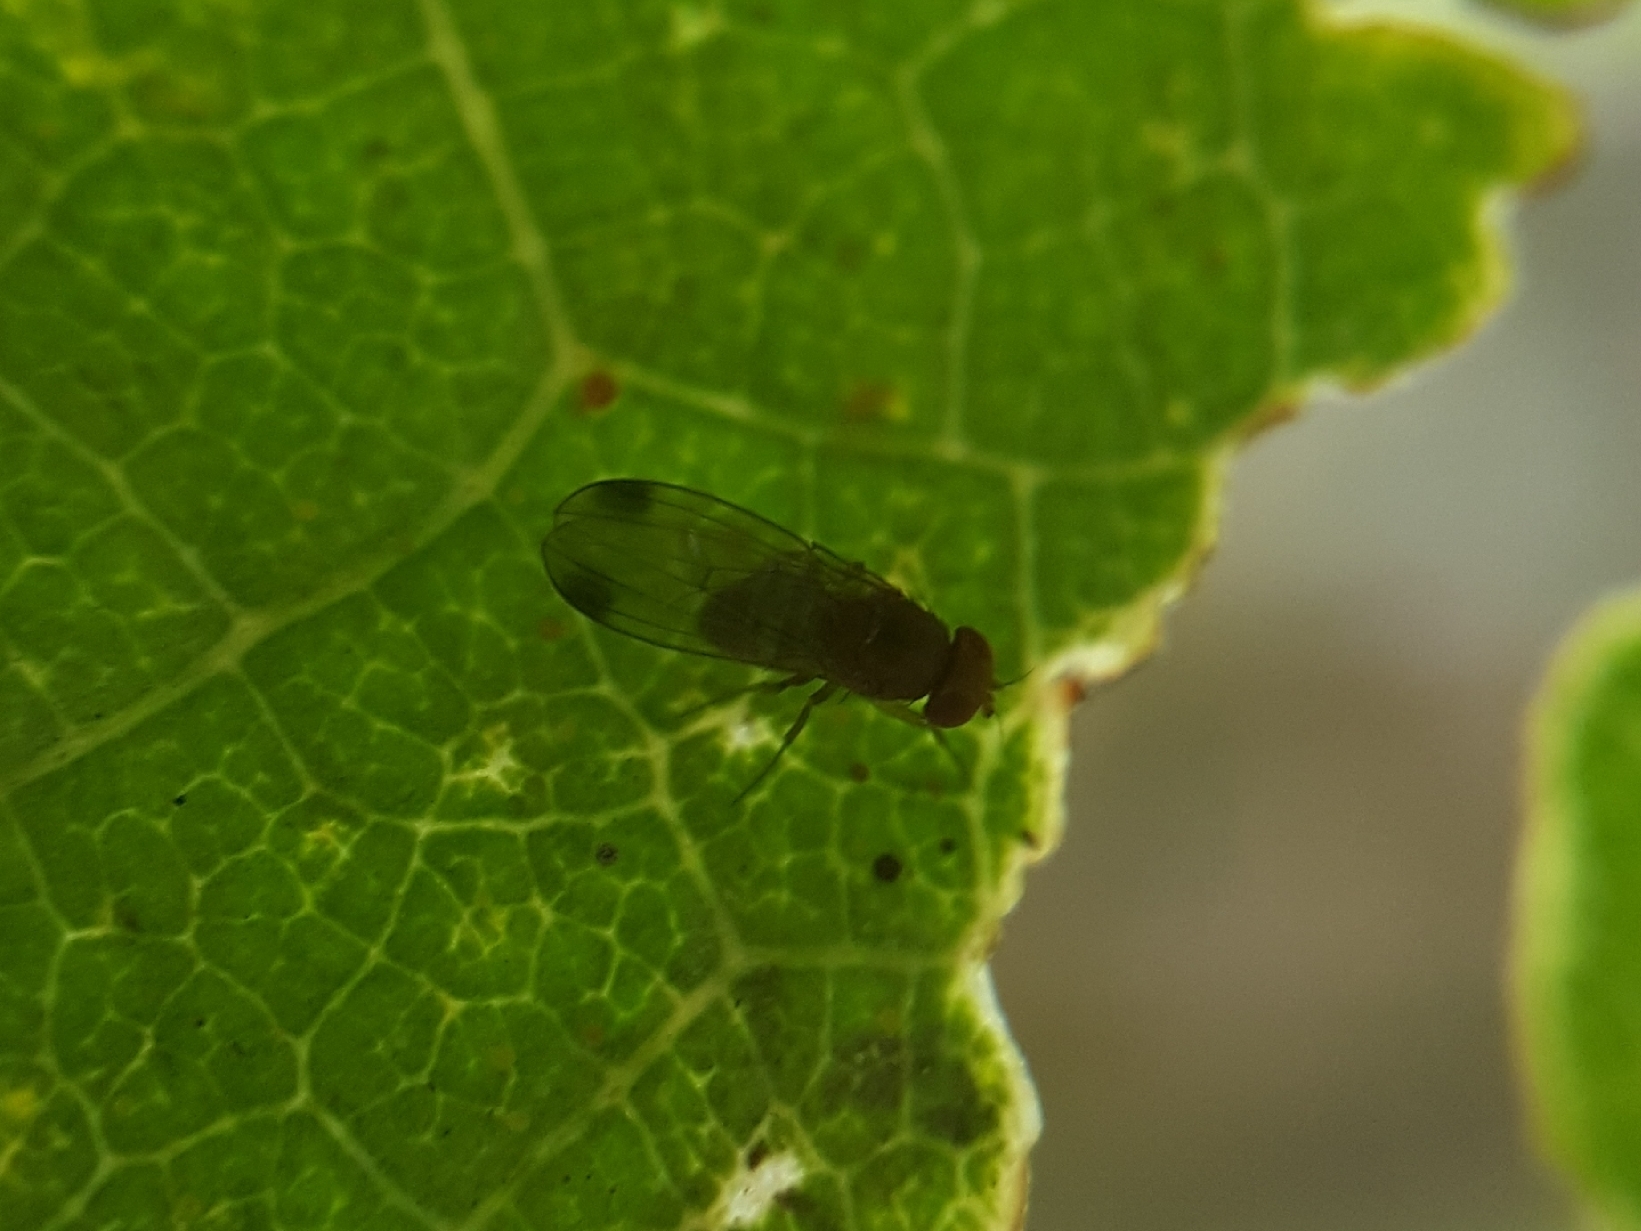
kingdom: Animalia
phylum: Arthropoda
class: Insecta
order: Diptera
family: Drosophilidae
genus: Drosophila
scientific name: Drosophila suzukii
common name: Spotted-wing drosophila
